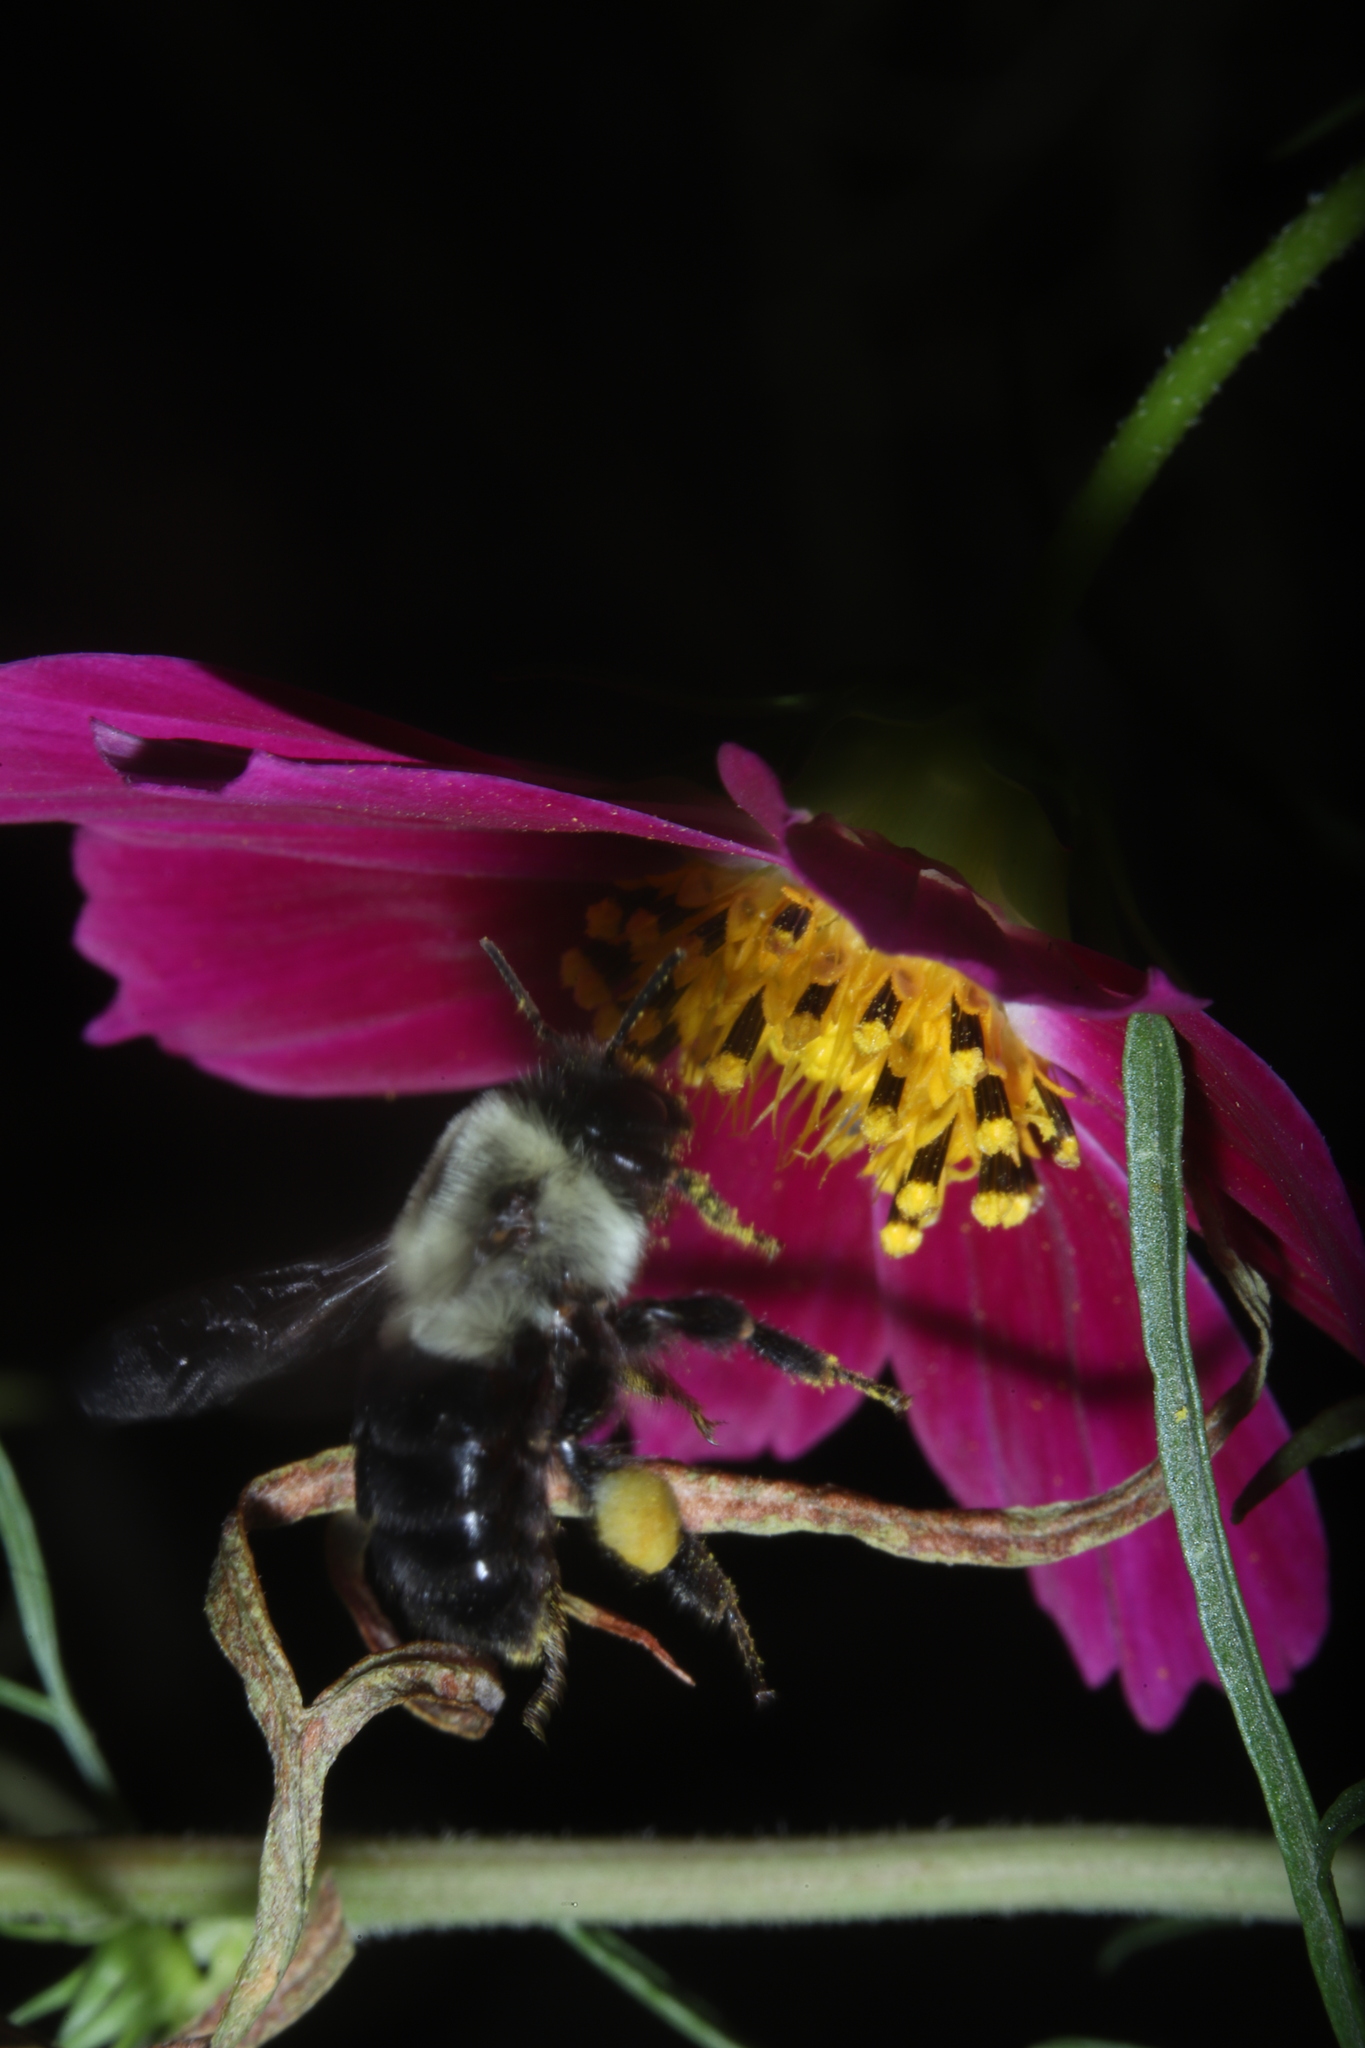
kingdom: Animalia
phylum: Arthropoda
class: Insecta
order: Hymenoptera
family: Apidae
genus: Bombus
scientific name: Bombus impatiens
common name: Common eastern bumble bee
